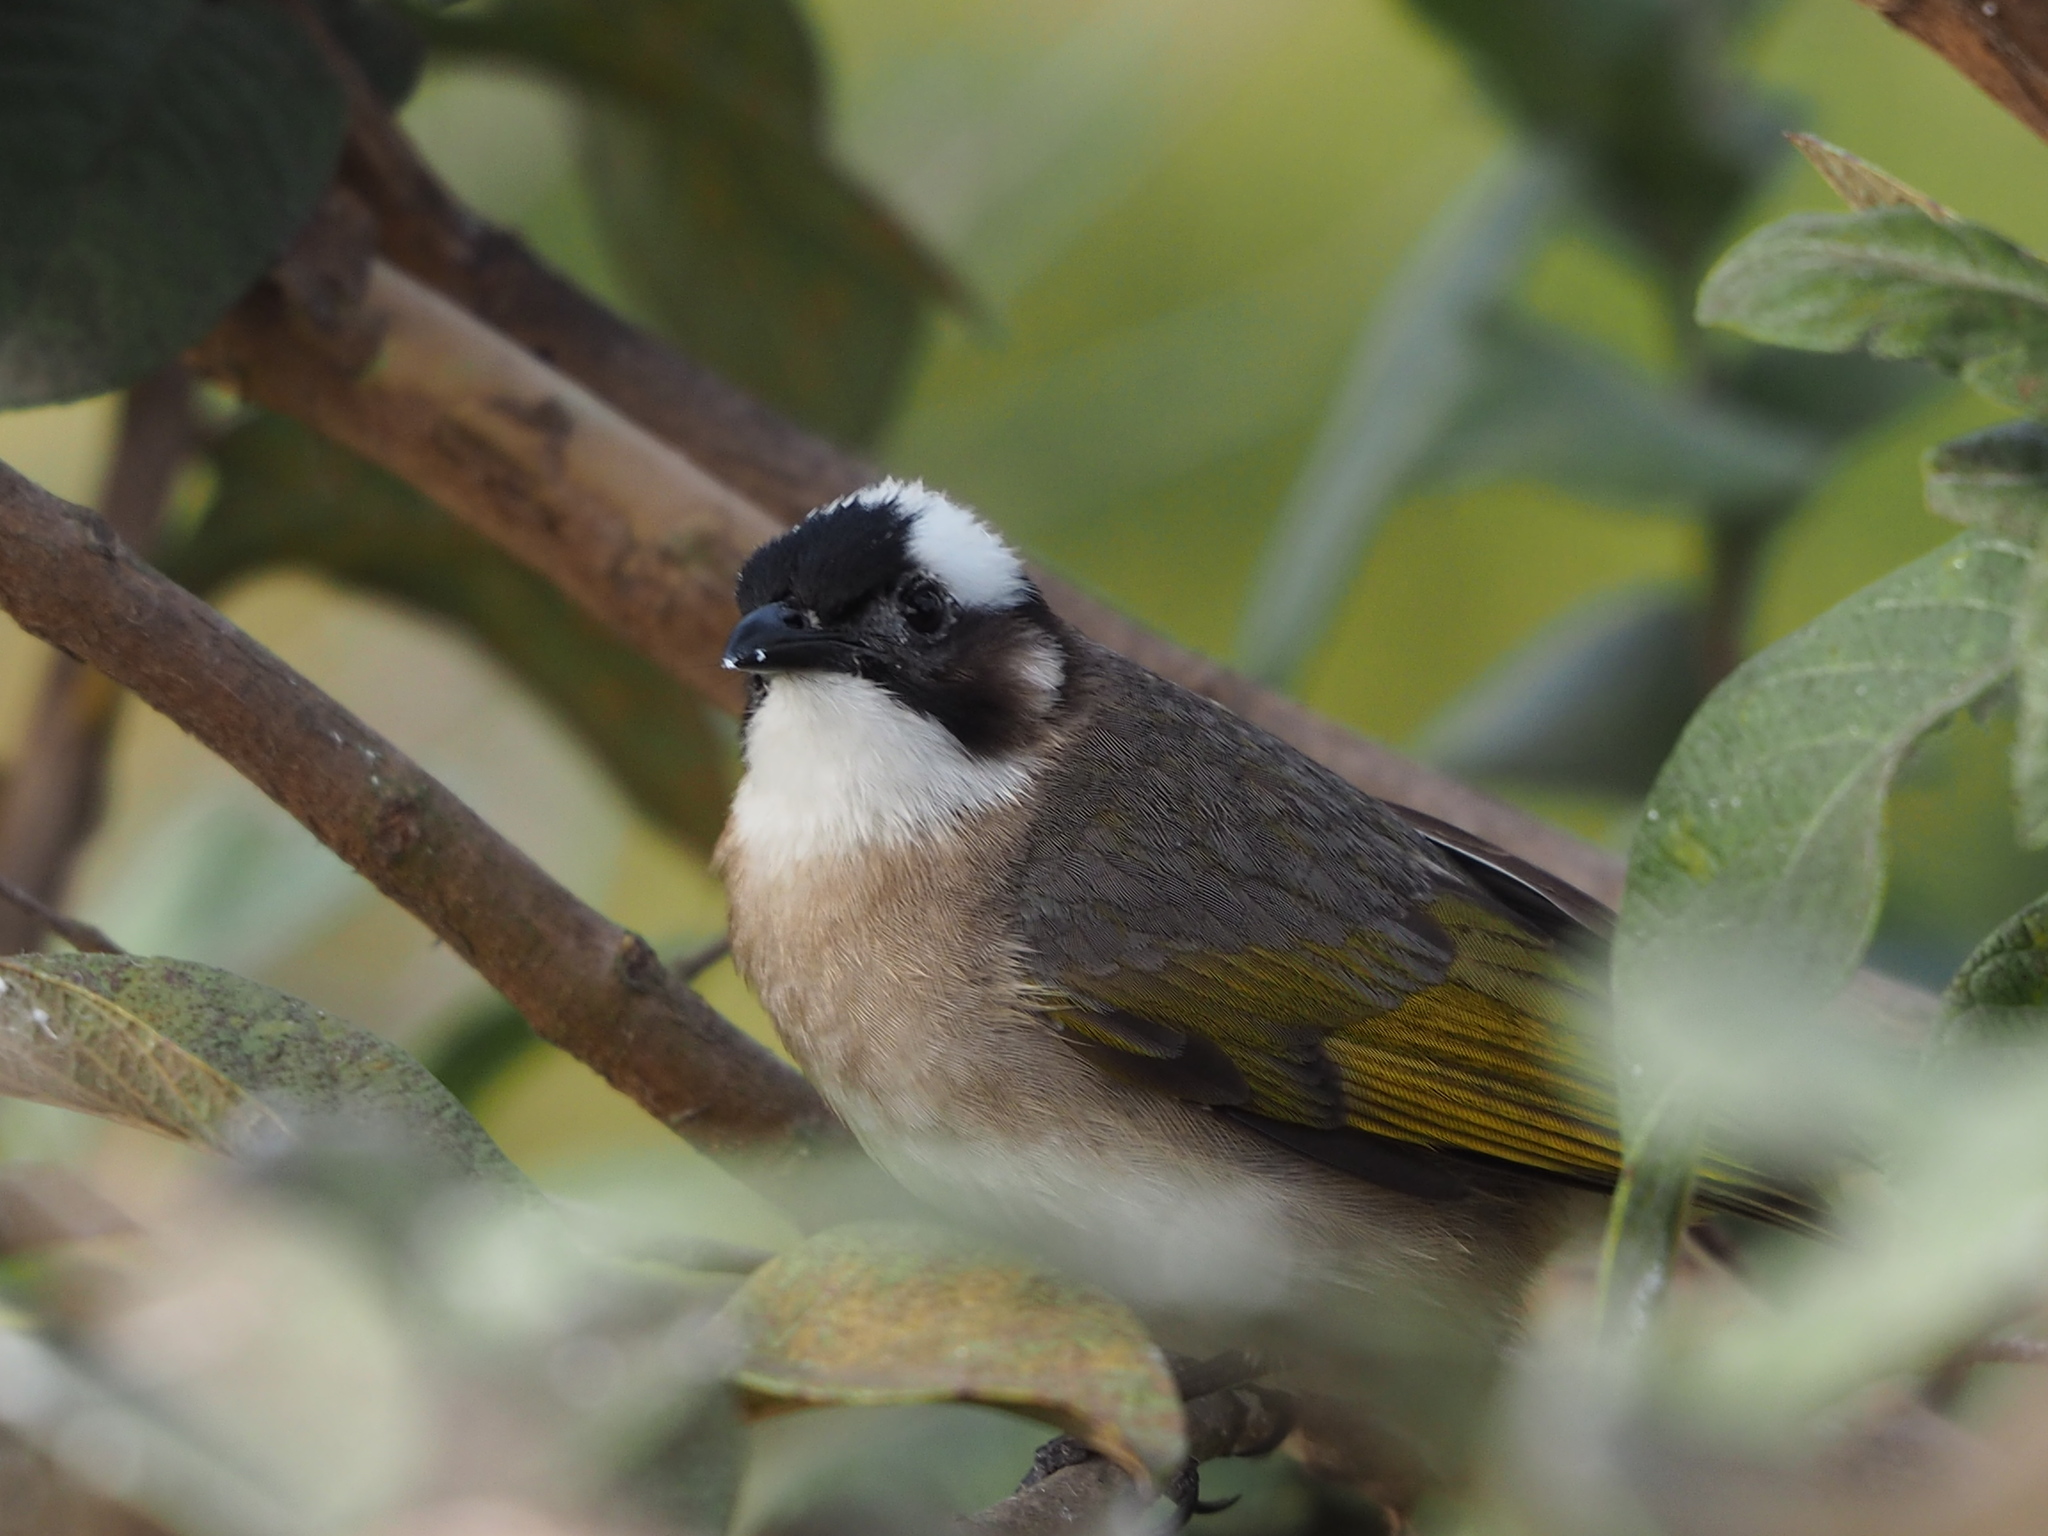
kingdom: Animalia
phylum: Chordata
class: Aves
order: Passeriformes
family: Pycnonotidae
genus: Pycnonotus
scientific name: Pycnonotus sinensis
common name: Light-vented bulbul
